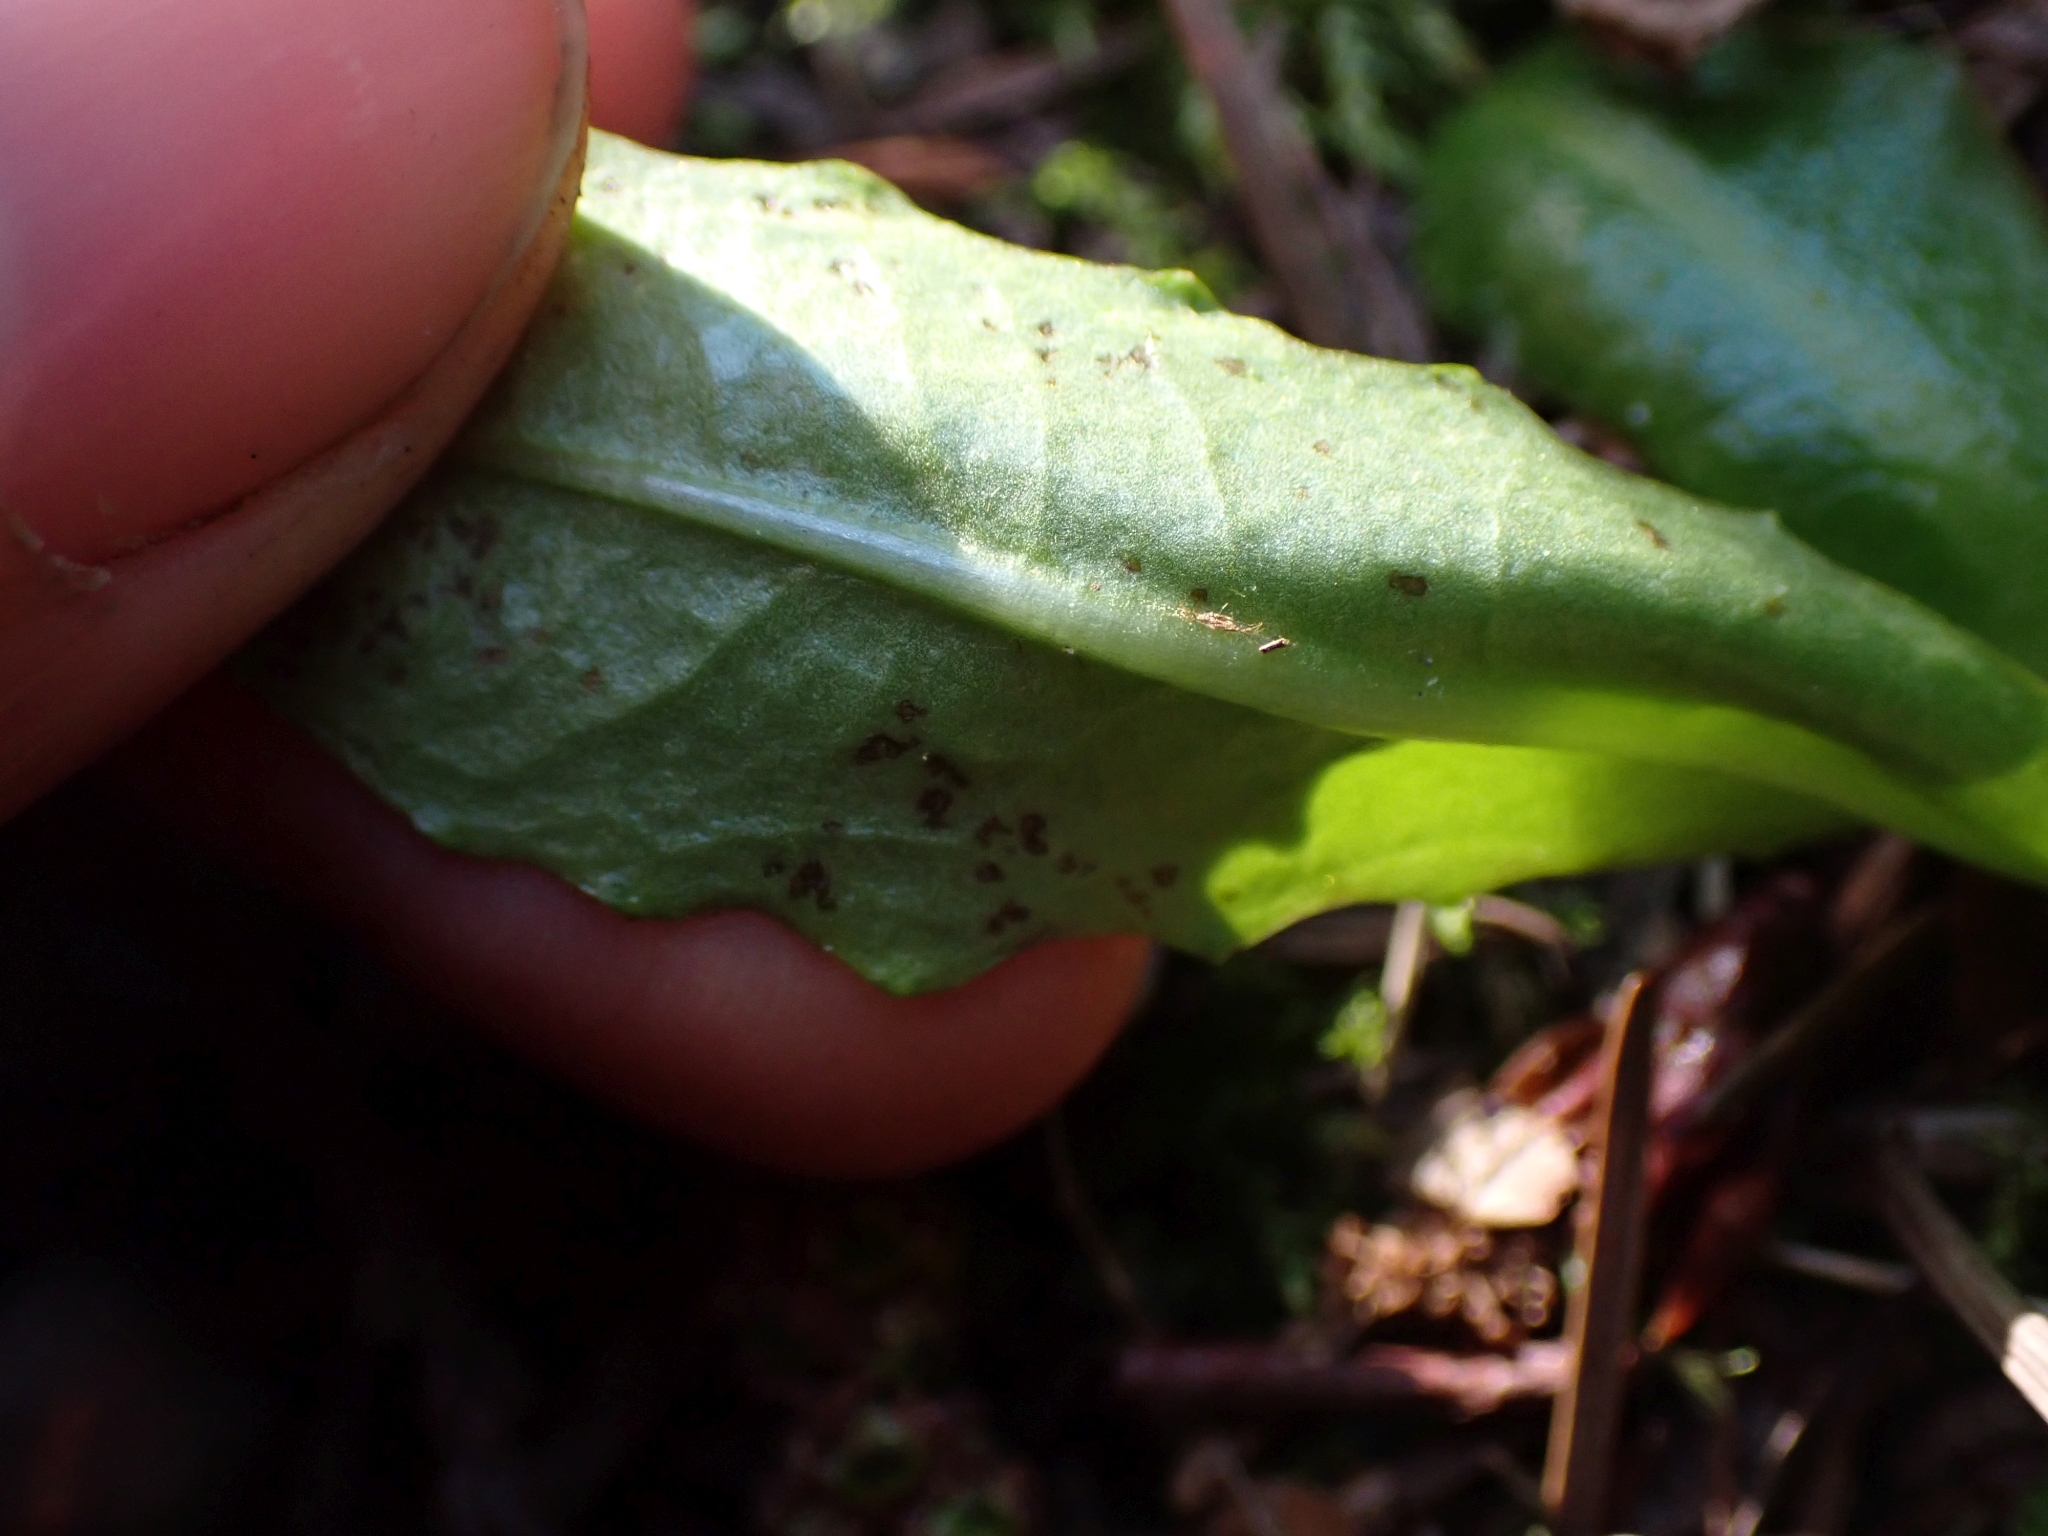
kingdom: Plantae
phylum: Tracheophyta
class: Magnoliopsida
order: Asterales
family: Asteraceae
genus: Hypochaeris
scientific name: Hypochaeris radicata
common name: Flatweed
